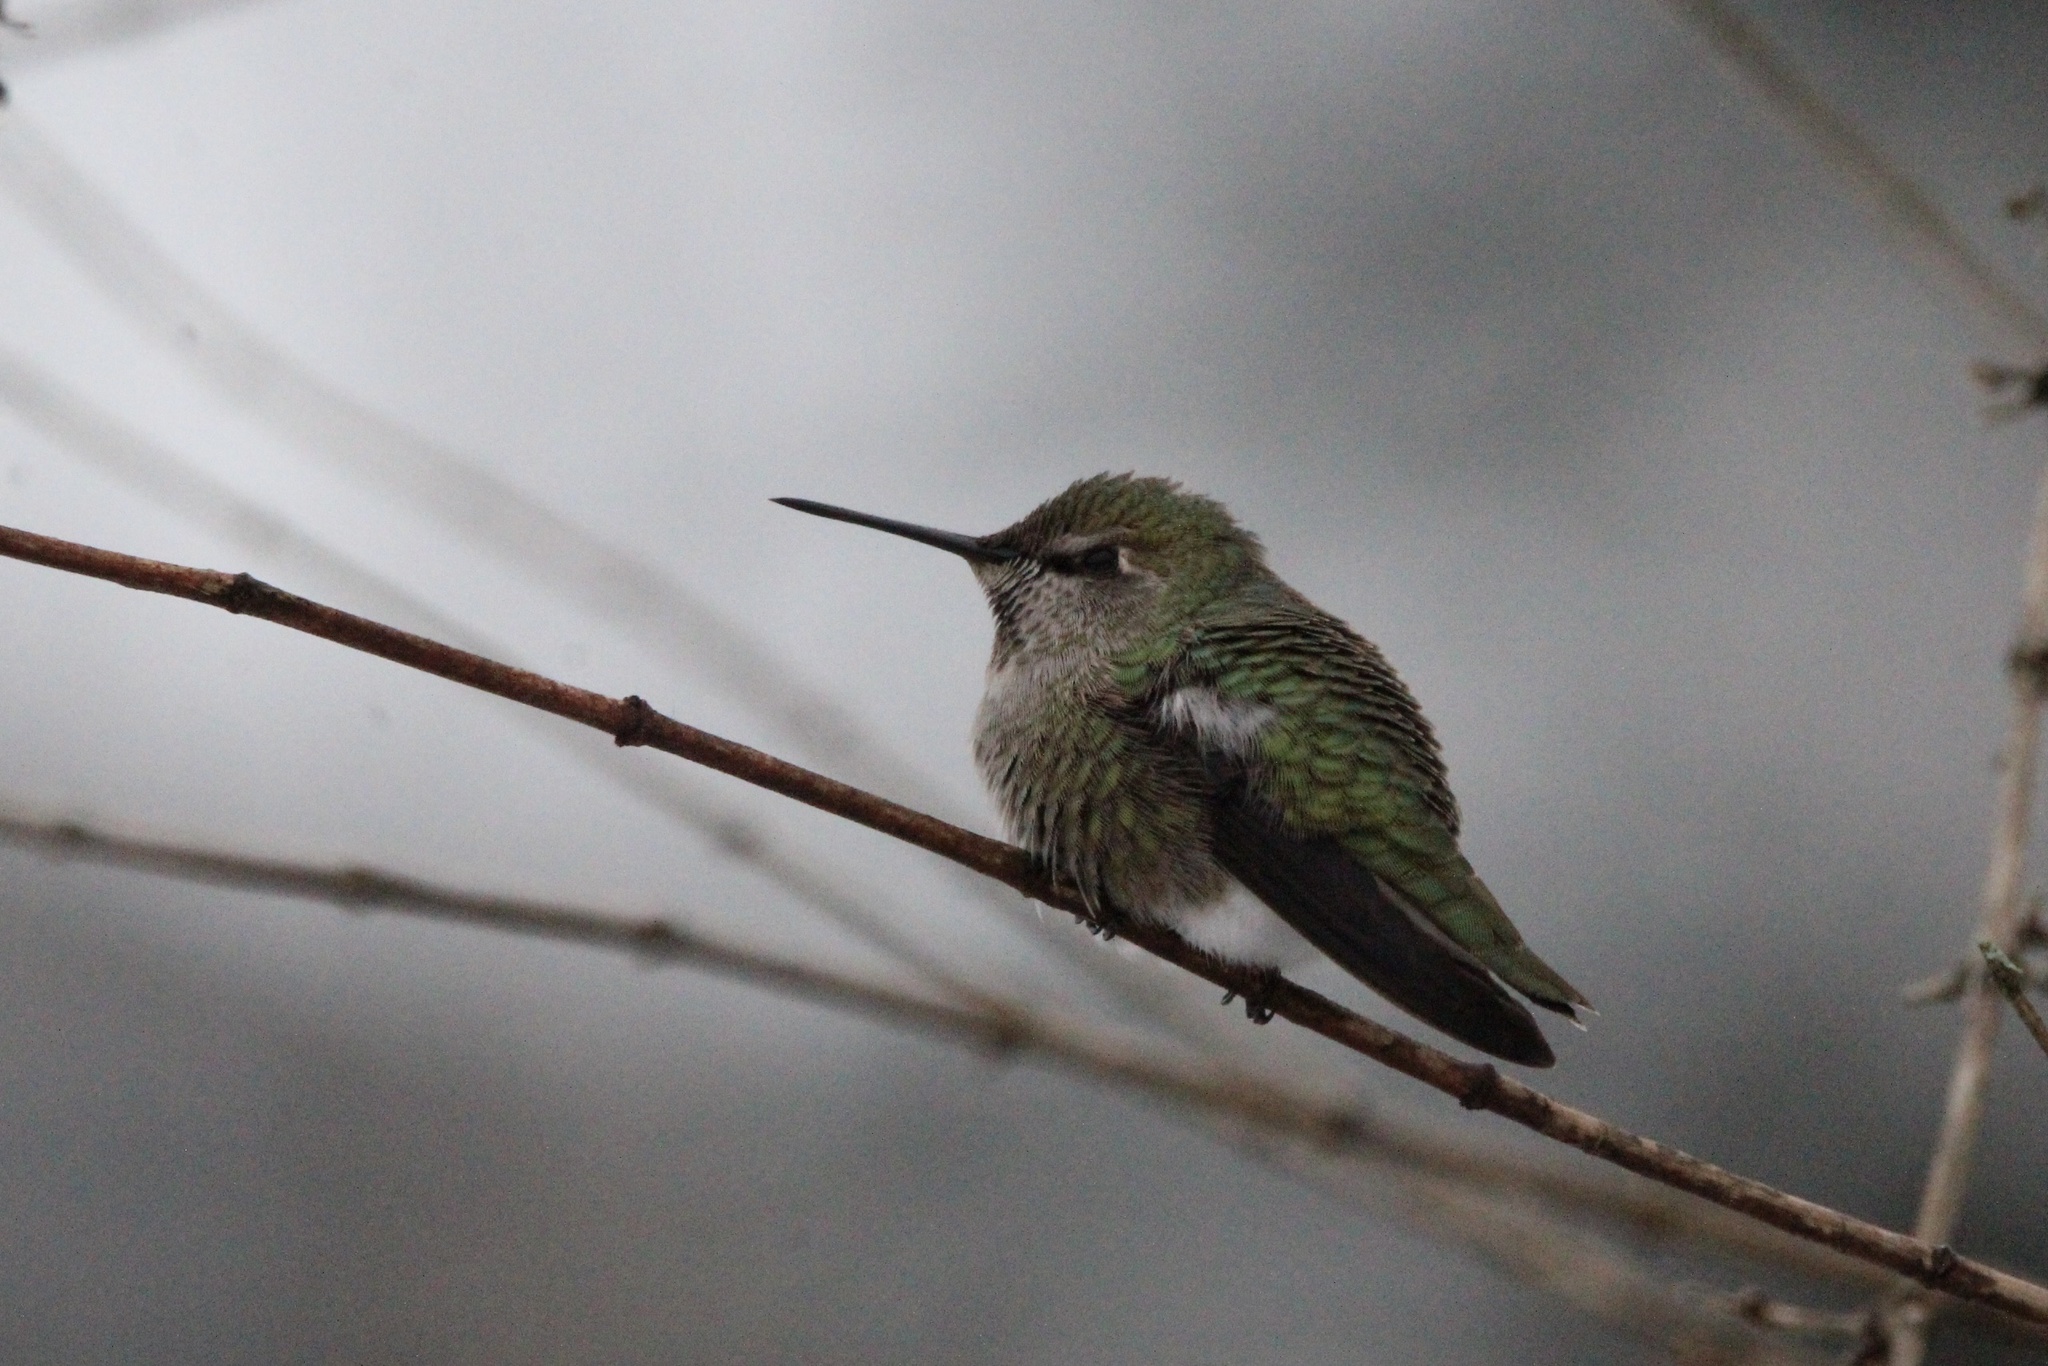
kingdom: Animalia
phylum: Chordata
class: Aves
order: Apodiformes
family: Trochilidae
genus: Calypte
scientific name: Calypte anna
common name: Anna's hummingbird
